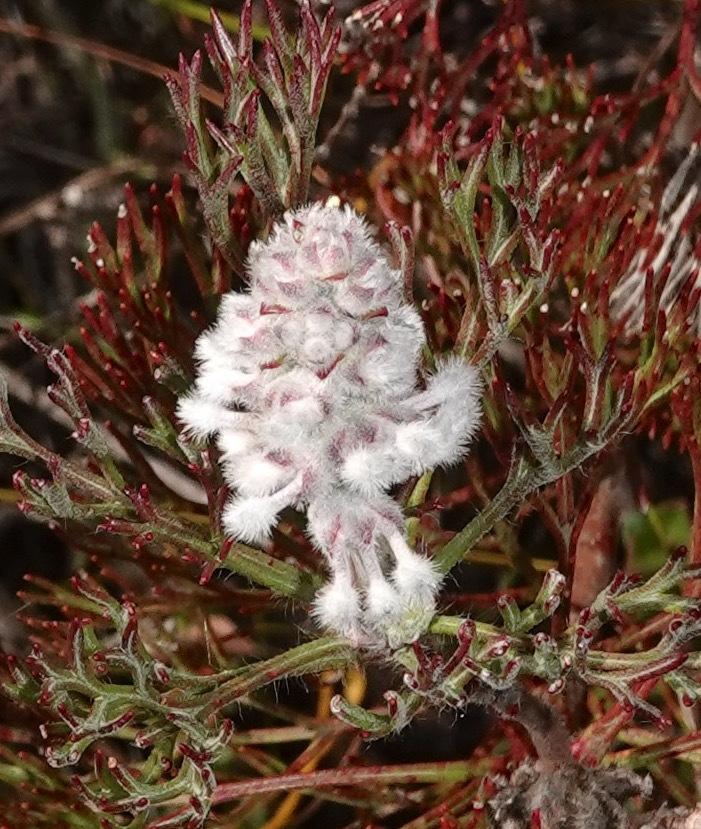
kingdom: Plantae
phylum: Tracheophyta
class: Magnoliopsida
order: Proteales
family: Proteaceae
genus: Paranomus
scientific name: Paranomus abrotanifolius
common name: Bredasdorp sceptre
